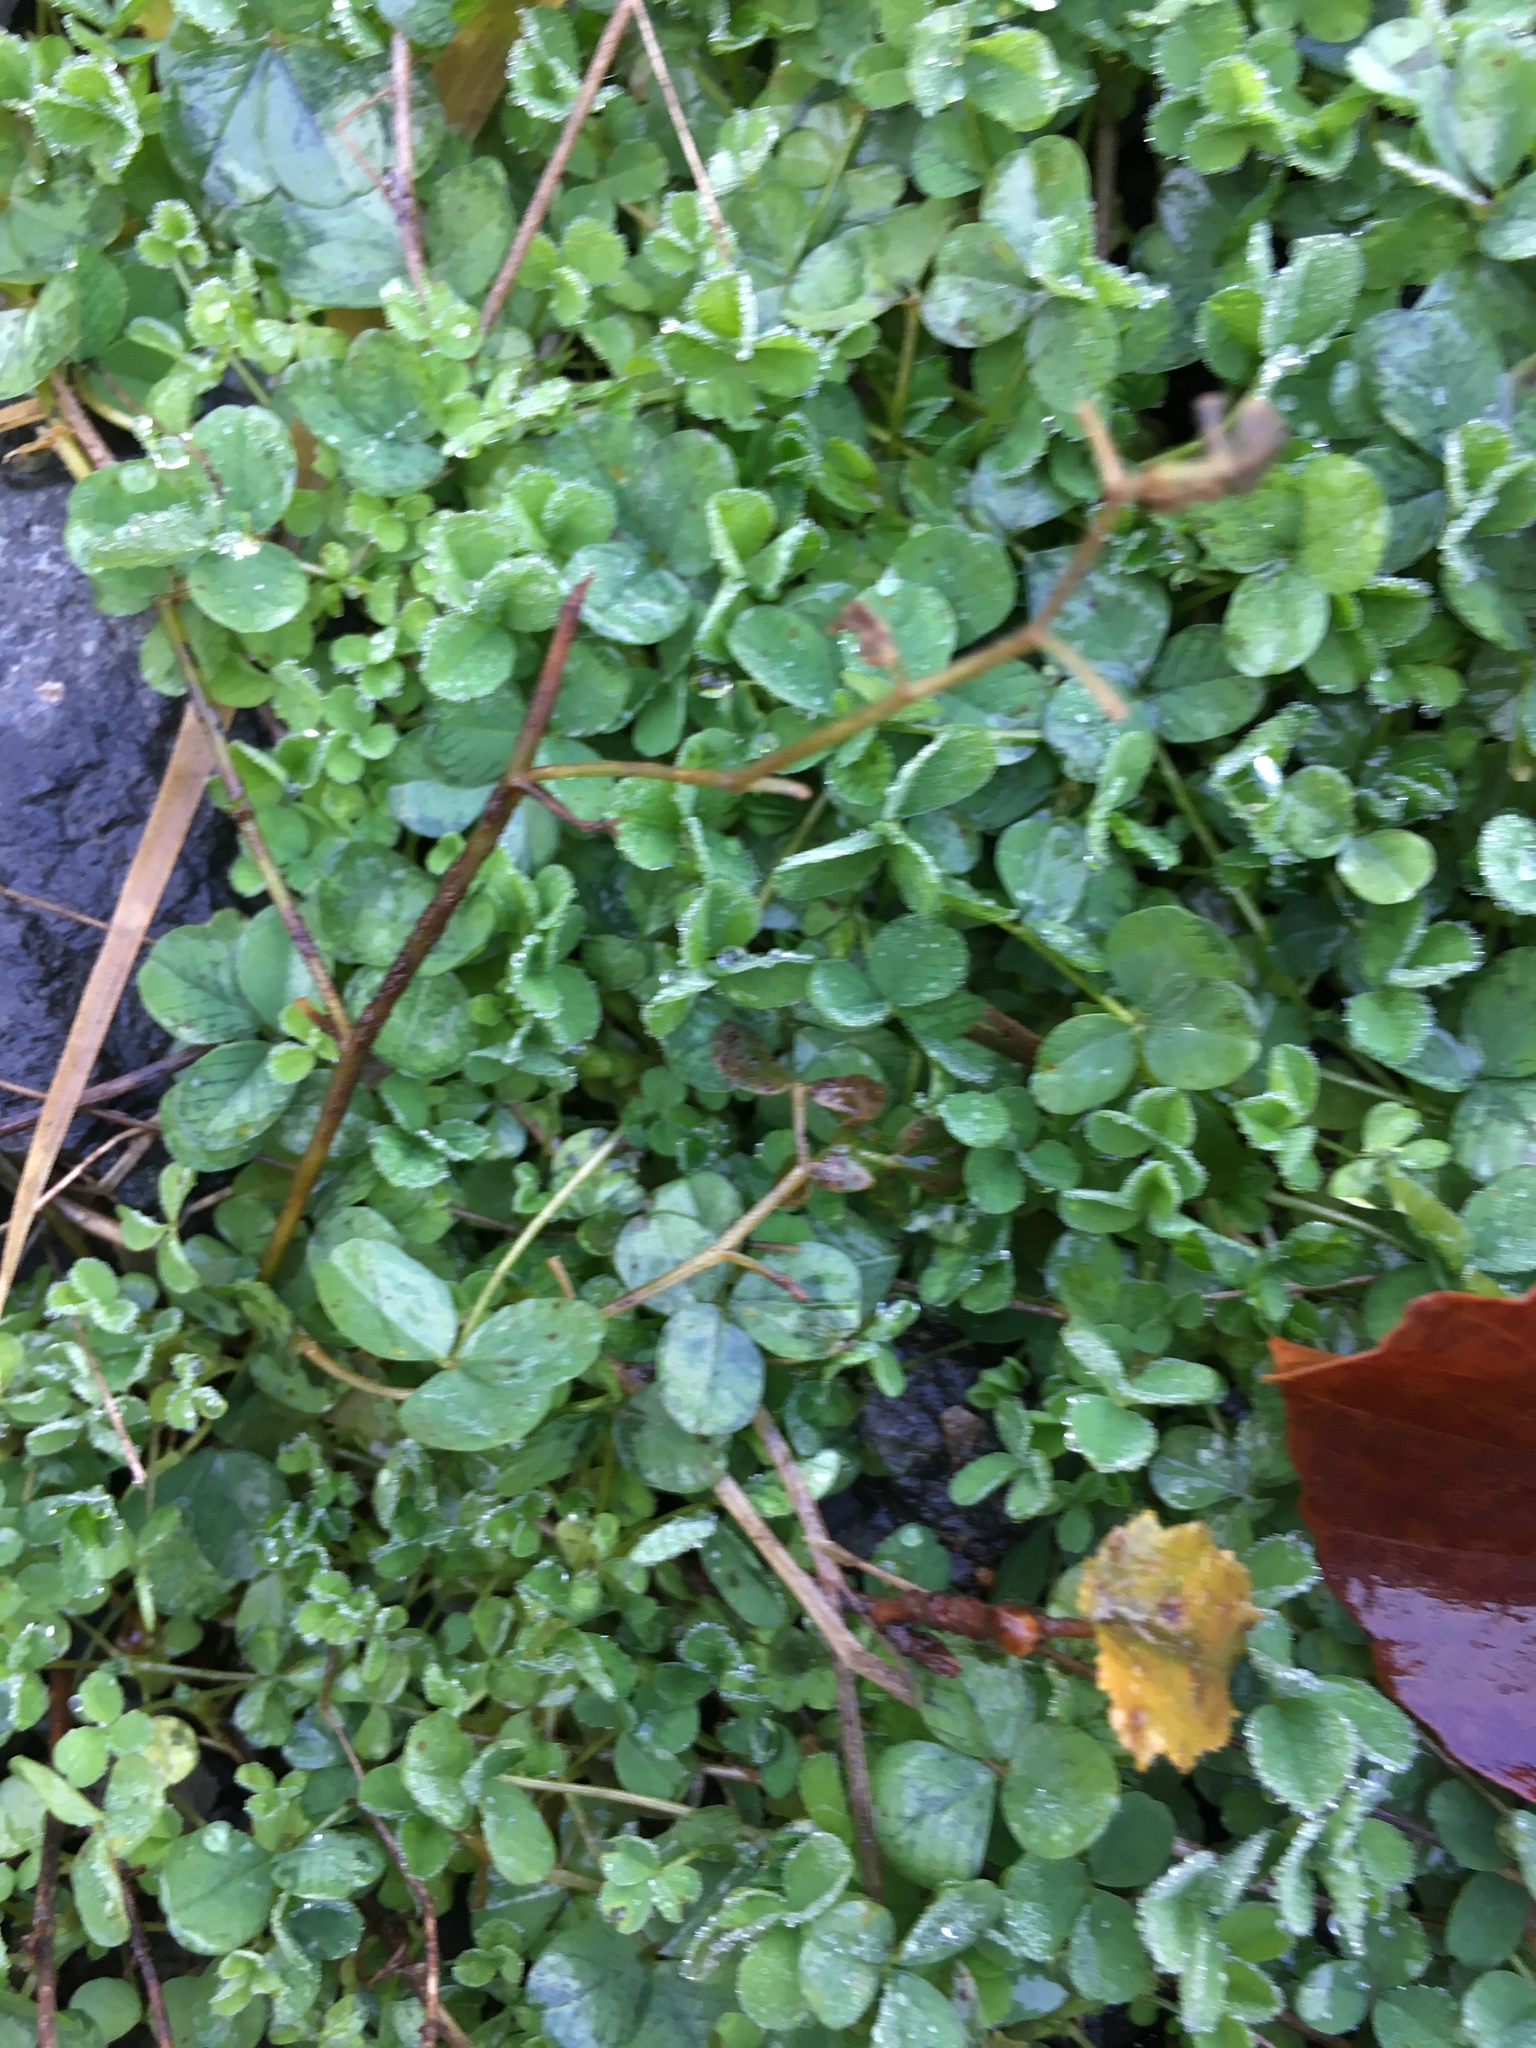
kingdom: Plantae
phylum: Tracheophyta
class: Magnoliopsida
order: Ericales
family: Primulaceae
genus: Lysimachia
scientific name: Lysimachia nummularia
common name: Moneywort
